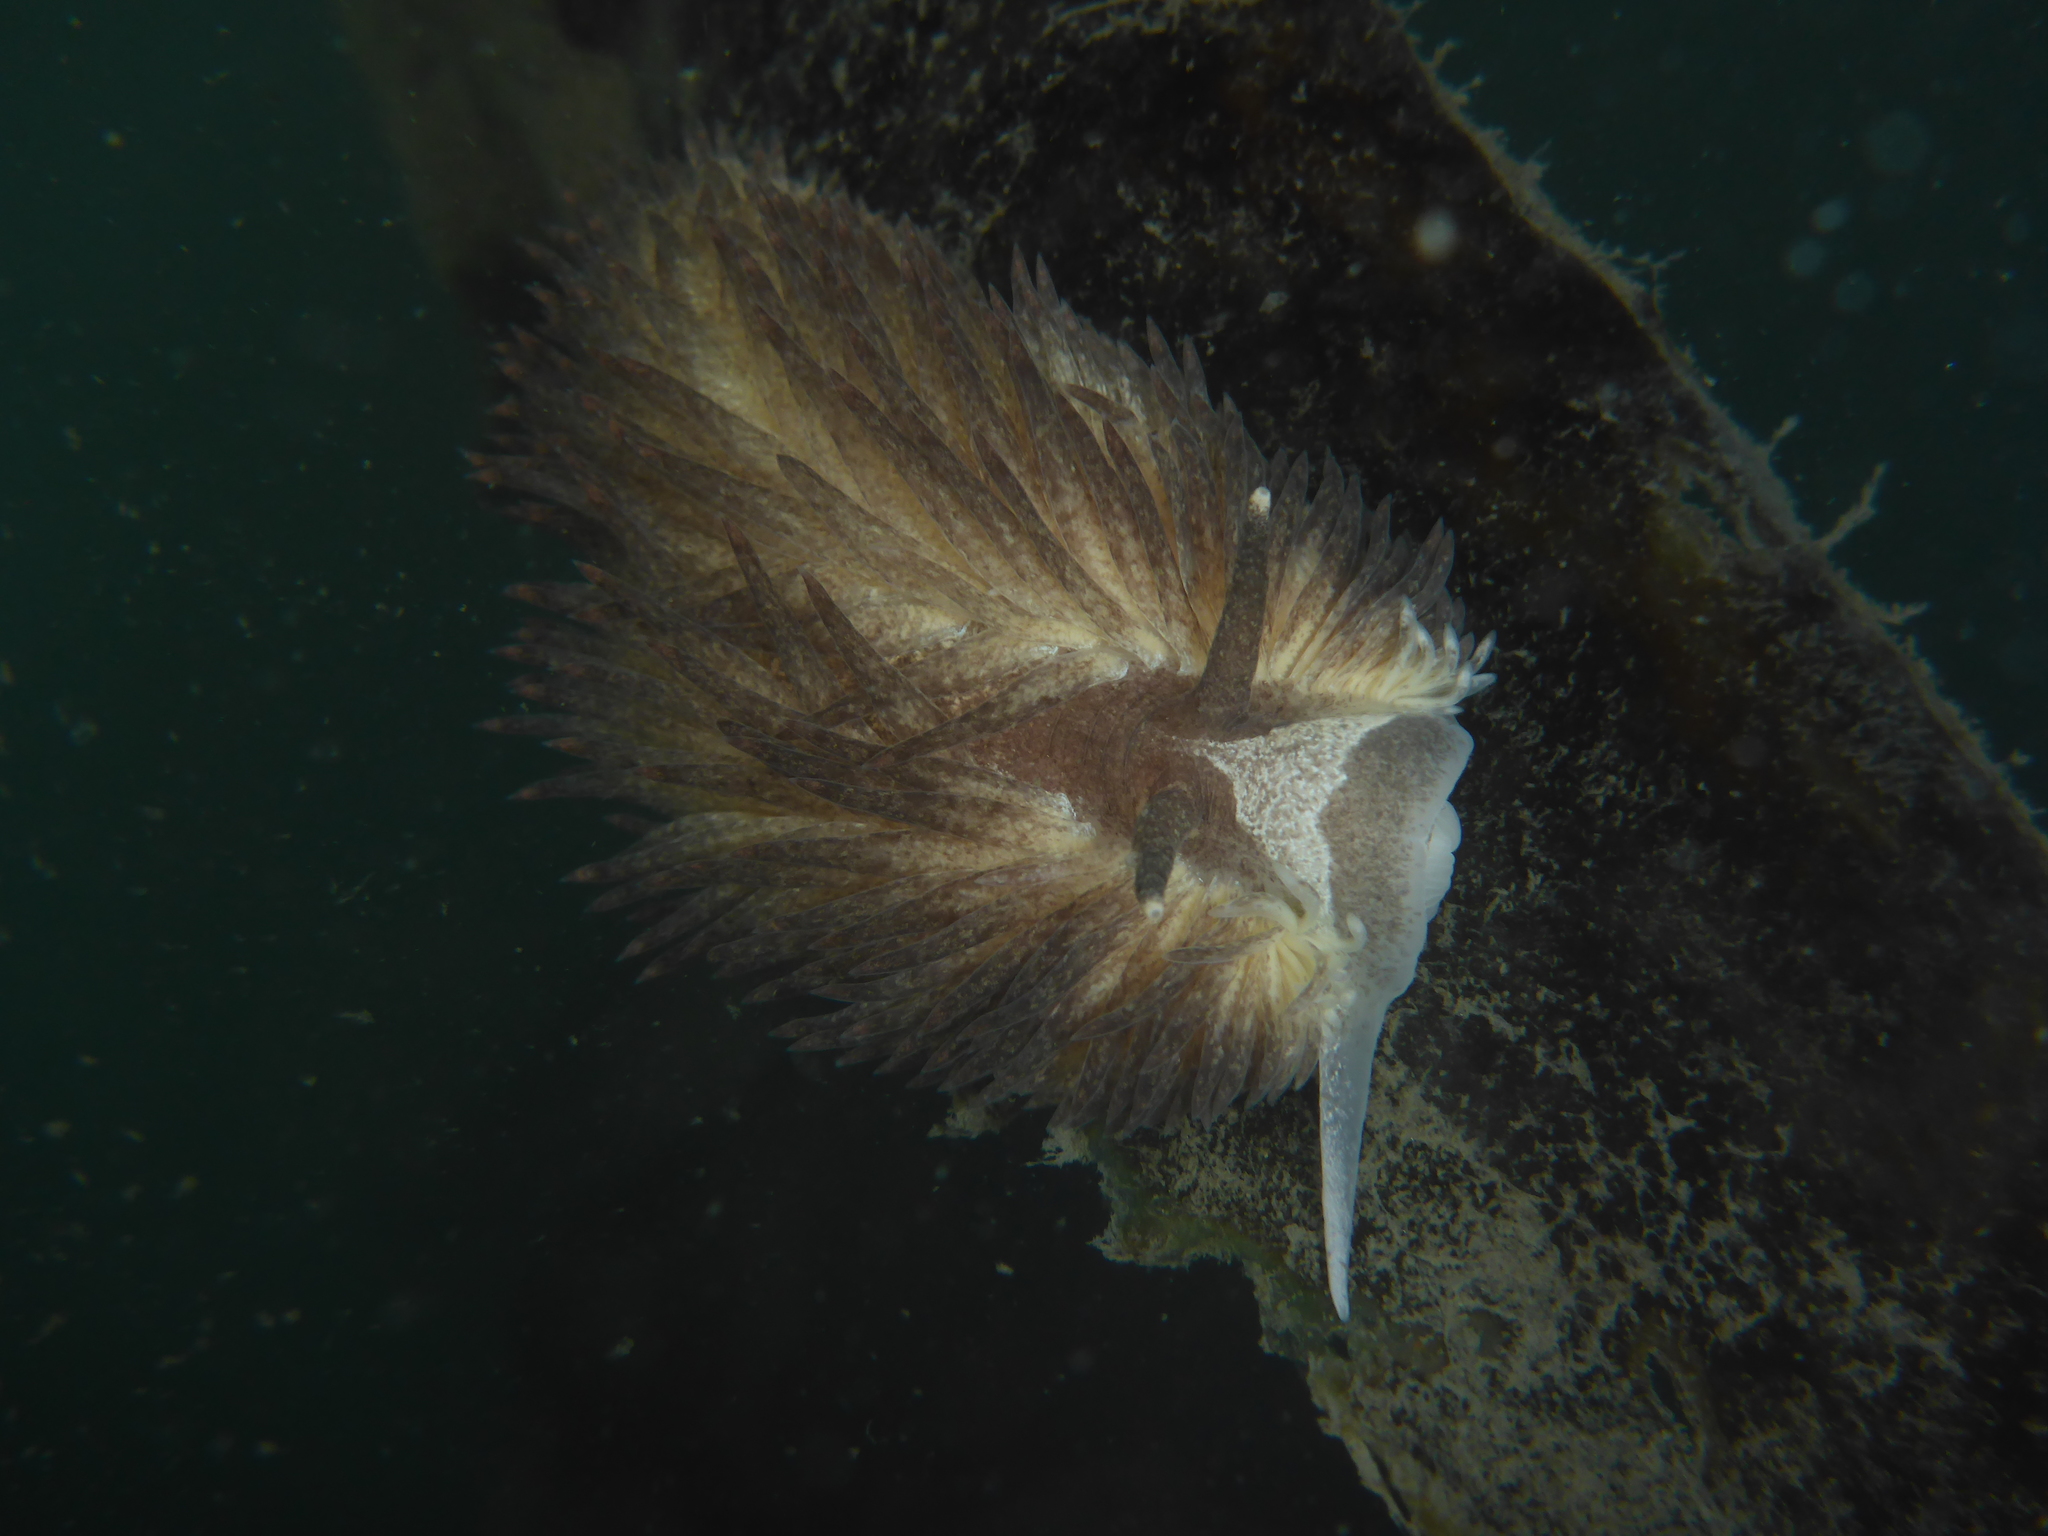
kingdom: Animalia
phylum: Mollusca
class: Gastropoda
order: Nudibranchia
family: Aeolidiidae
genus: Aeolidia
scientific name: Aeolidia papillosa
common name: Common grey sea slug
